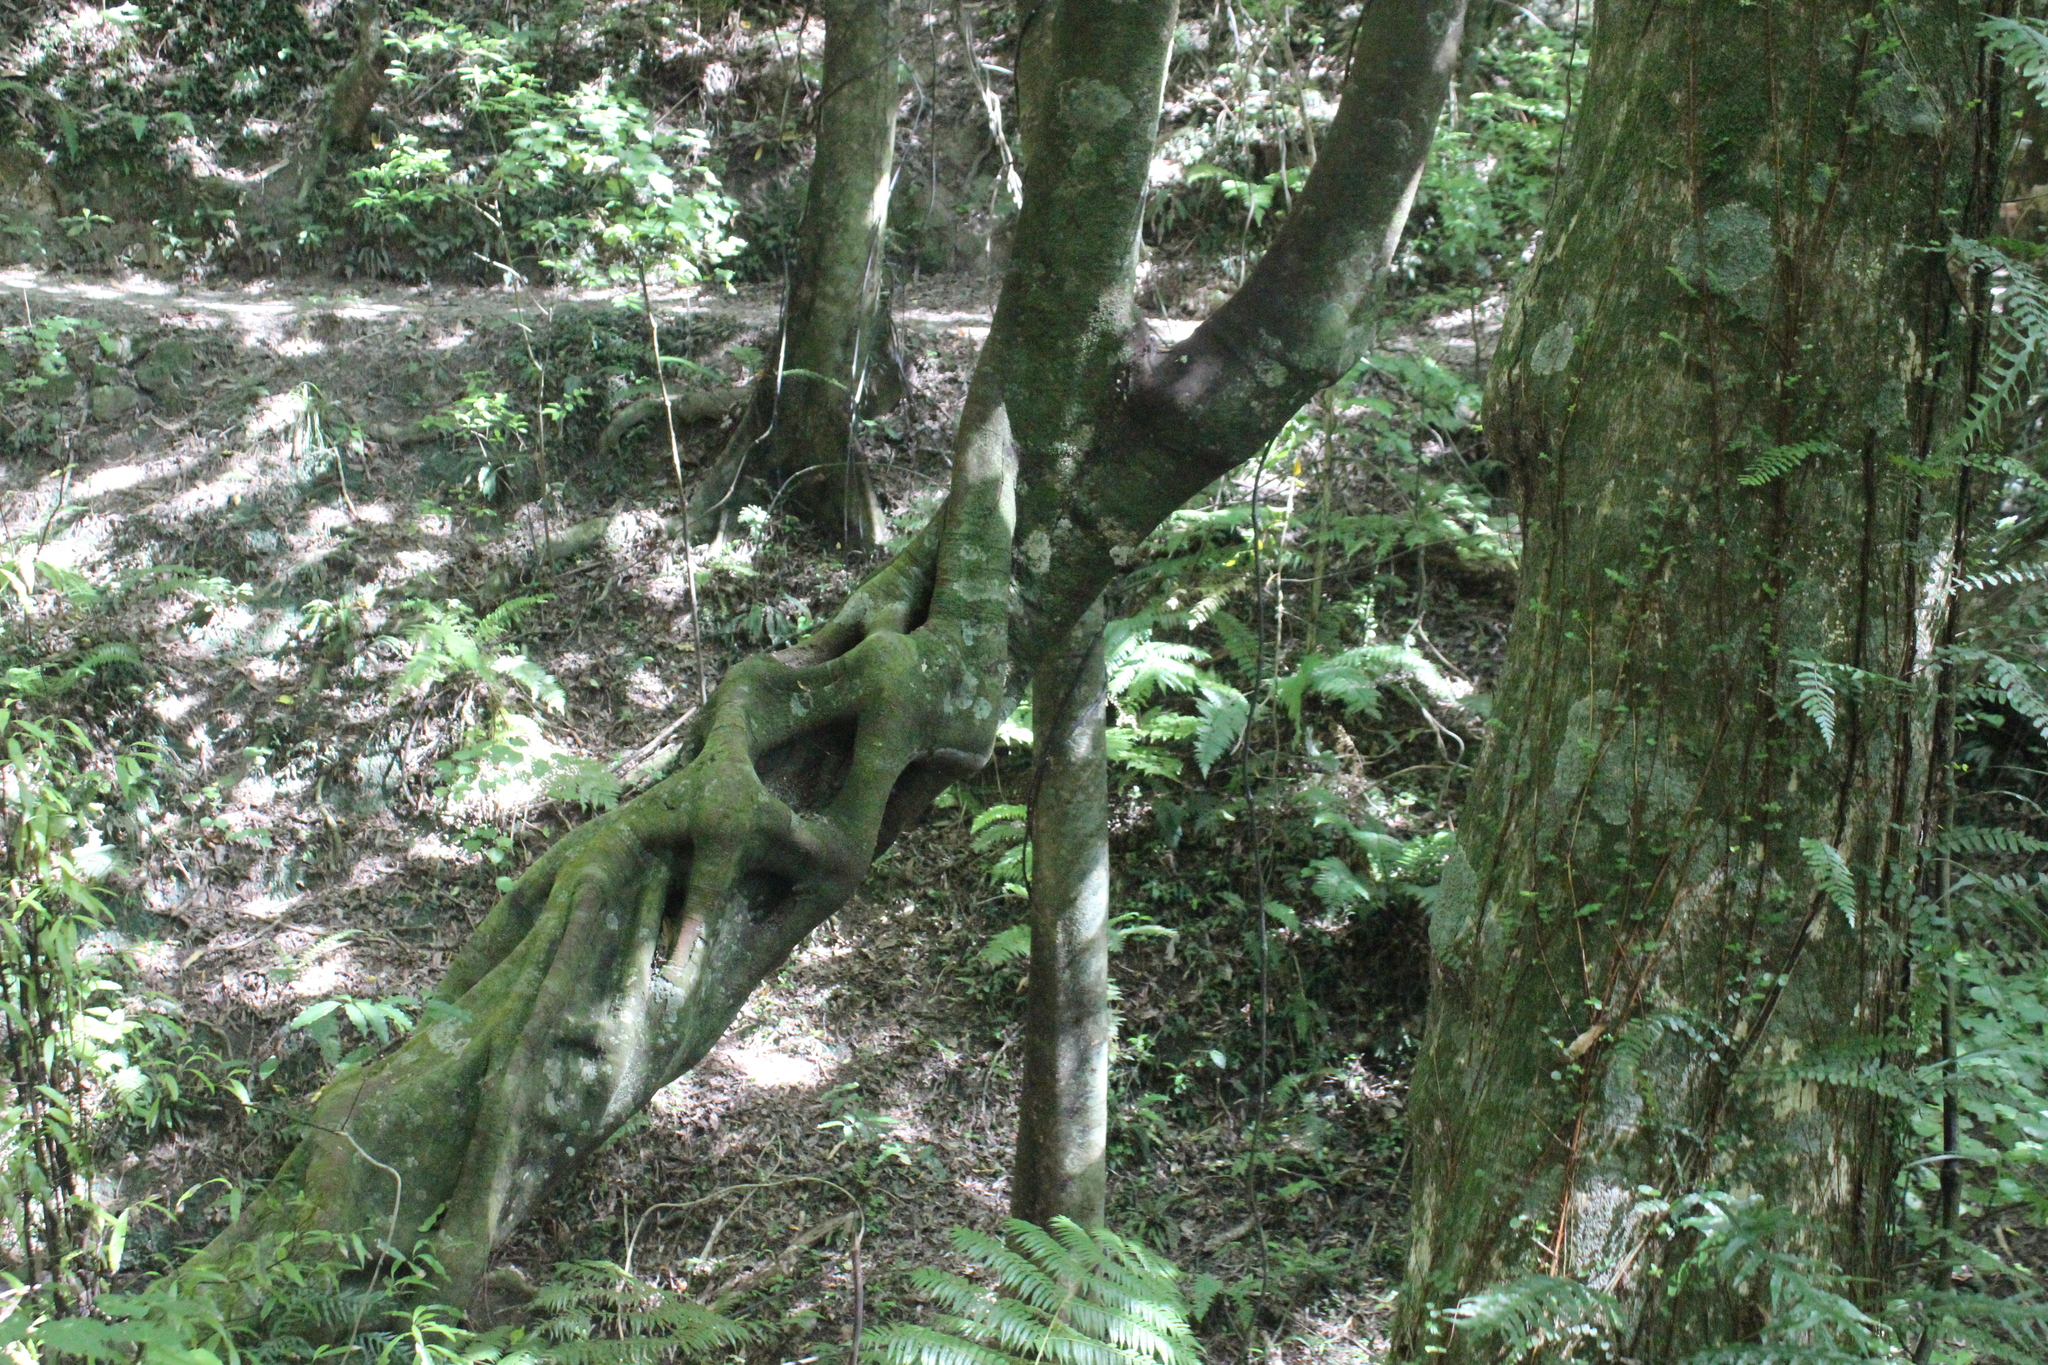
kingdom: Plantae
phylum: Tracheophyta
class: Magnoliopsida
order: Laurales
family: Lauraceae
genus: Beilschmiedia
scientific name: Beilschmiedia tawa
